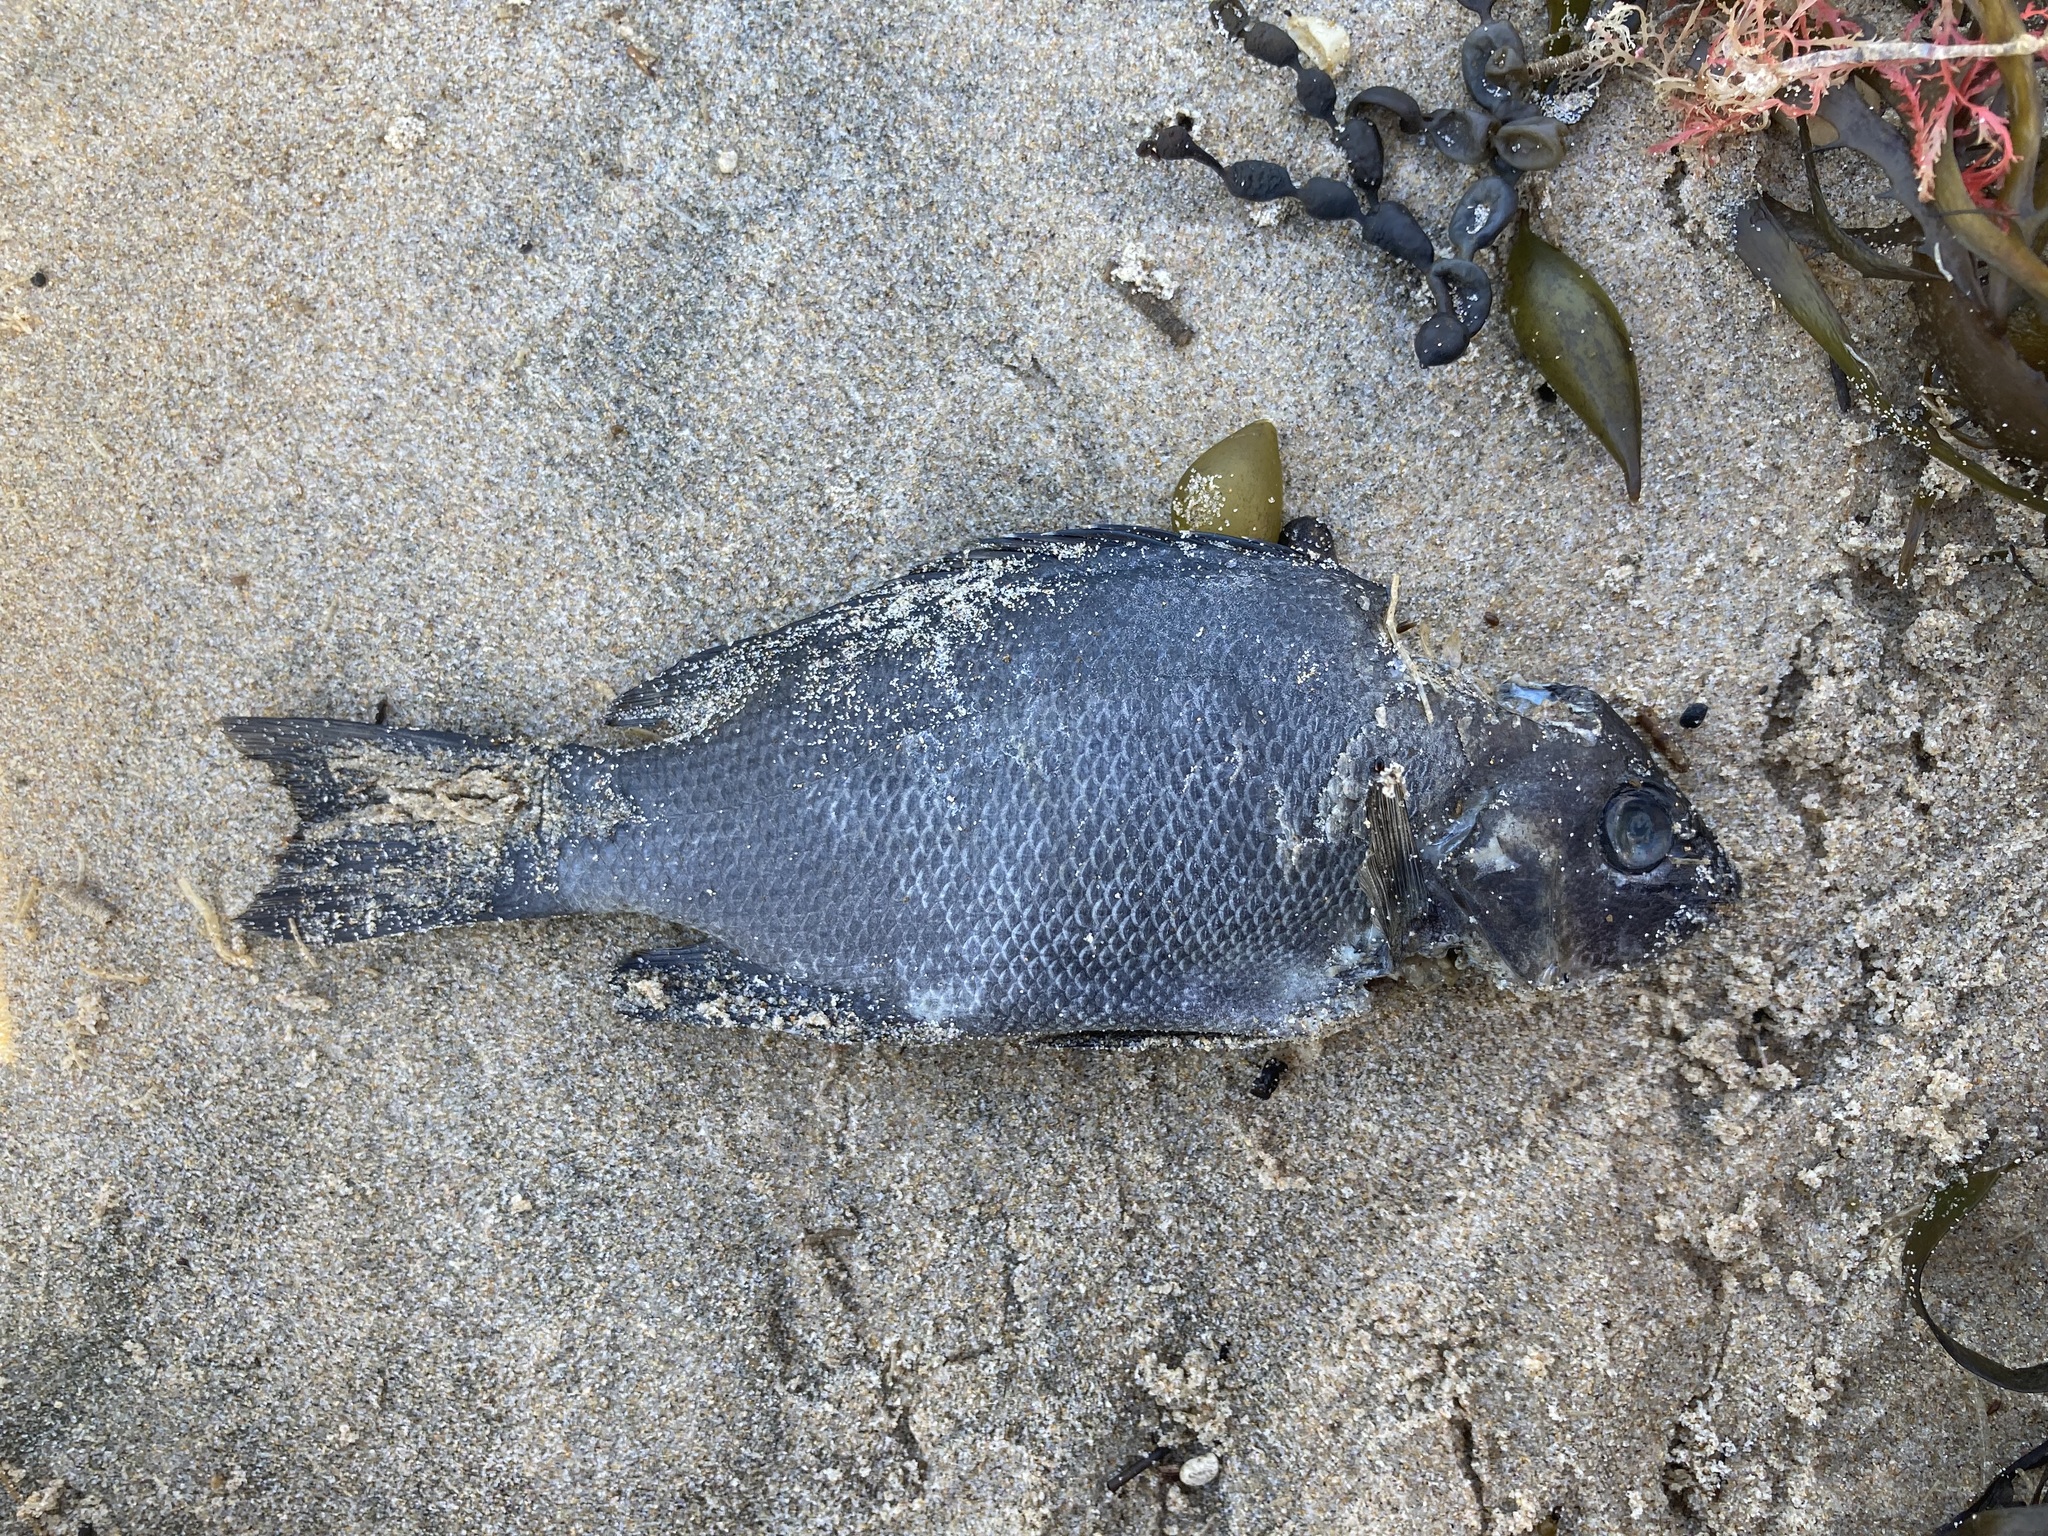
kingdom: Animalia
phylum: Chordata
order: Perciformes
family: Kyphosidae
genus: Girella
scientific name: Girella elevata
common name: Black bream
